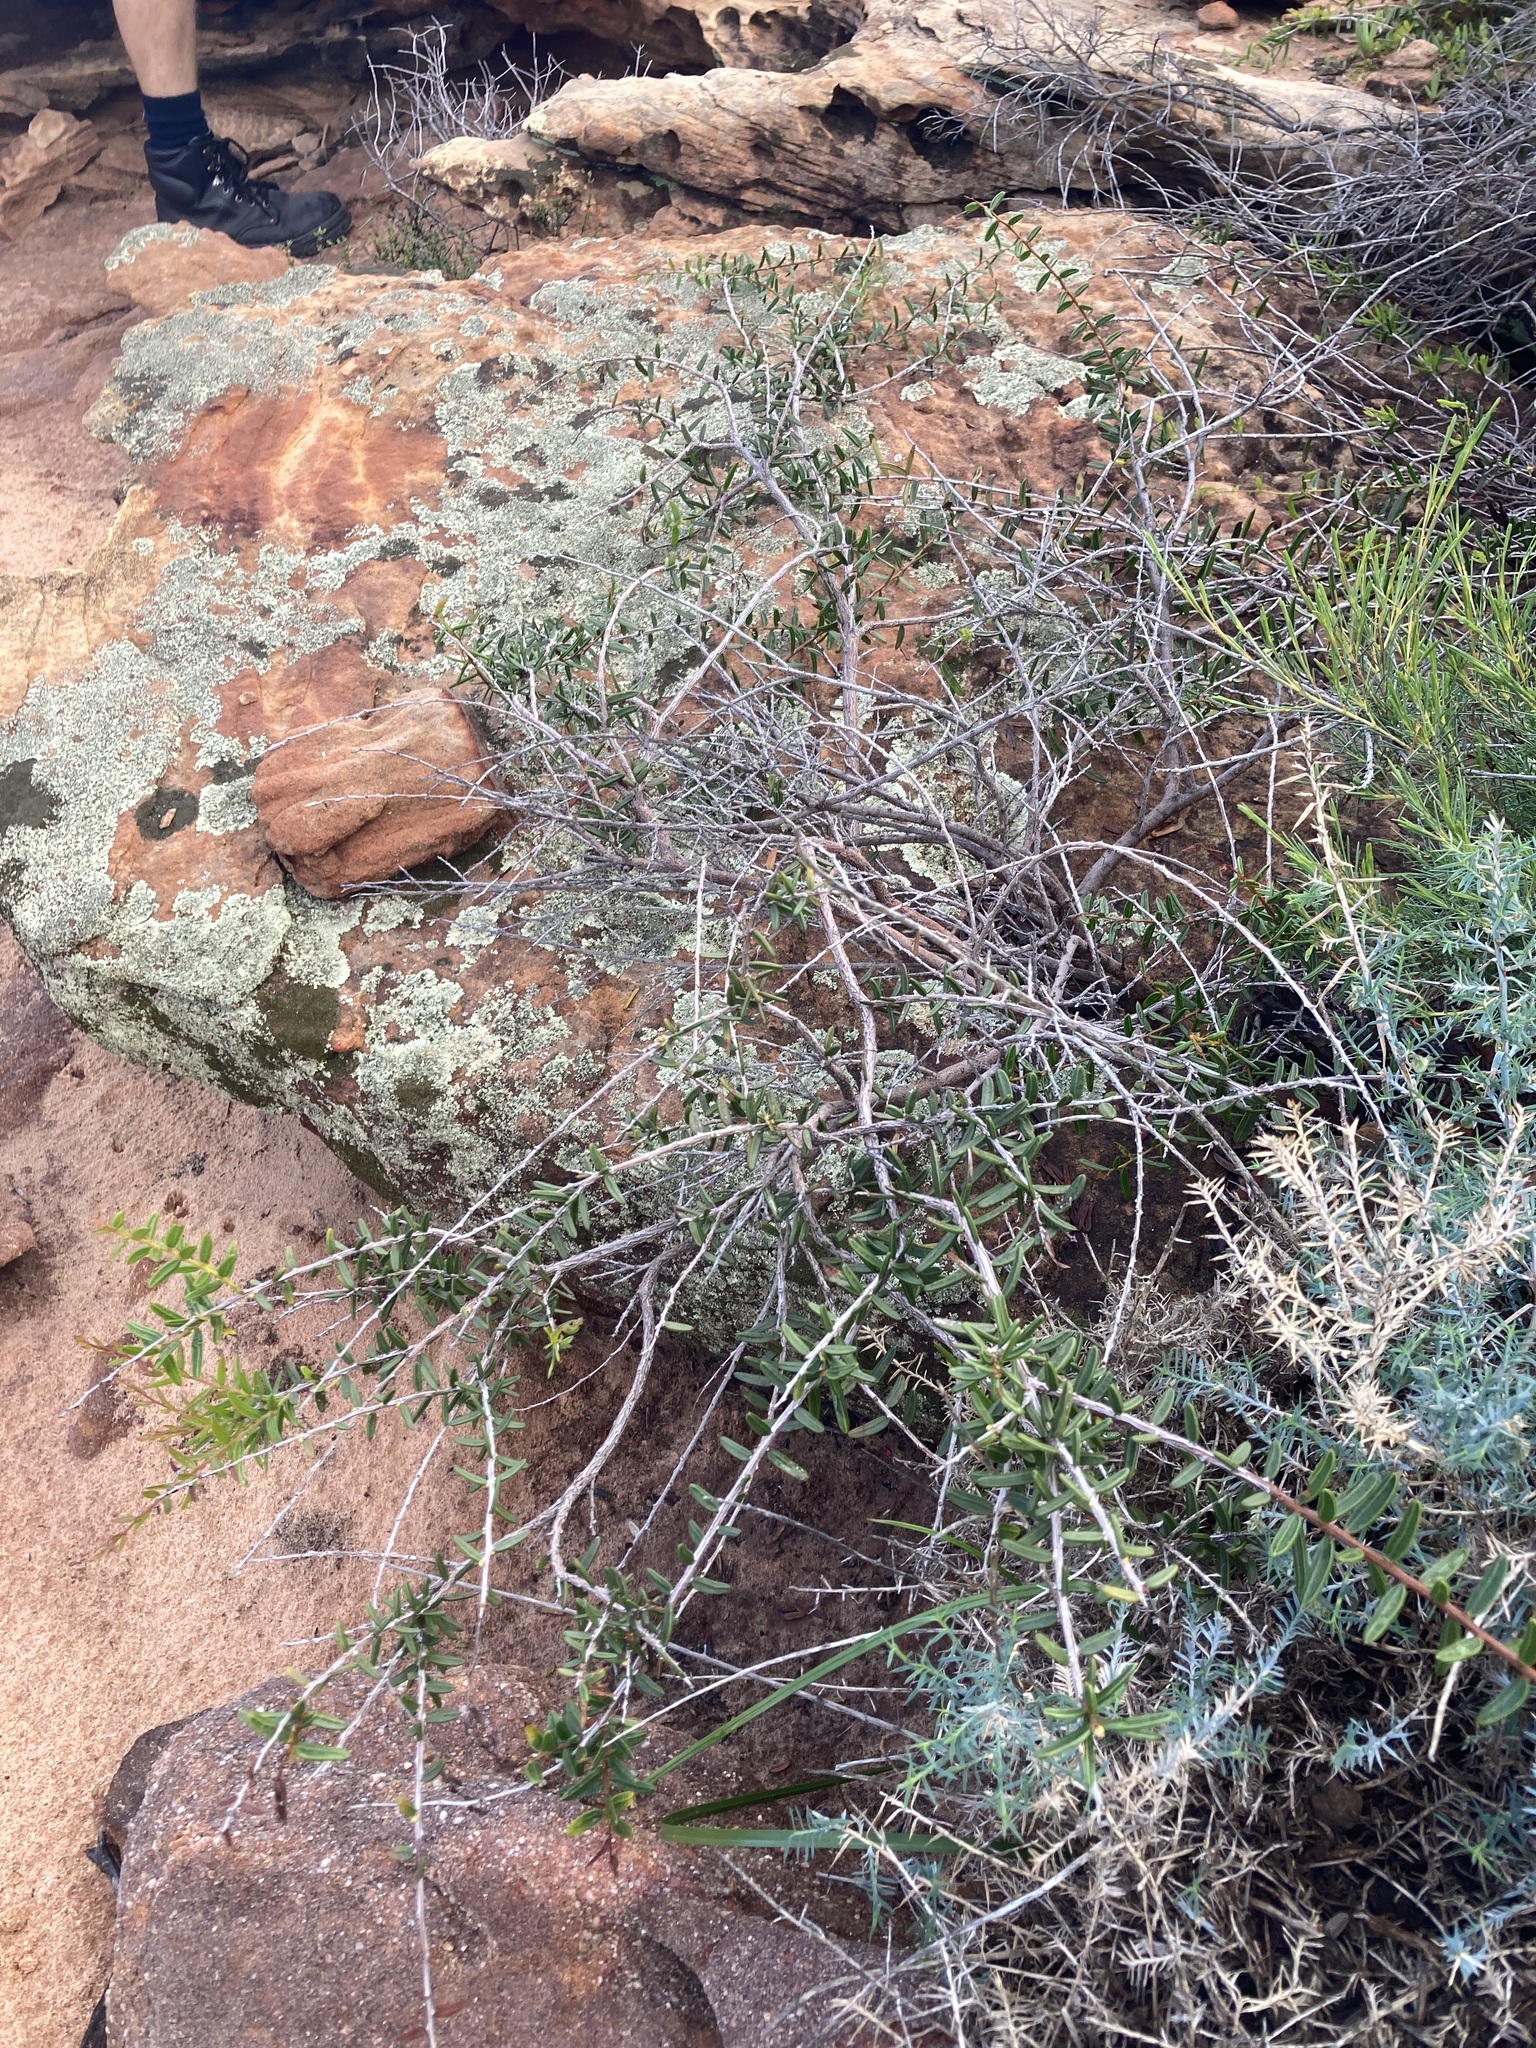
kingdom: Plantae
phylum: Tracheophyta
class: Magnoliopsida
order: Fabales
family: Fabaceae
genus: Acacia
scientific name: Acacia andrewsii
